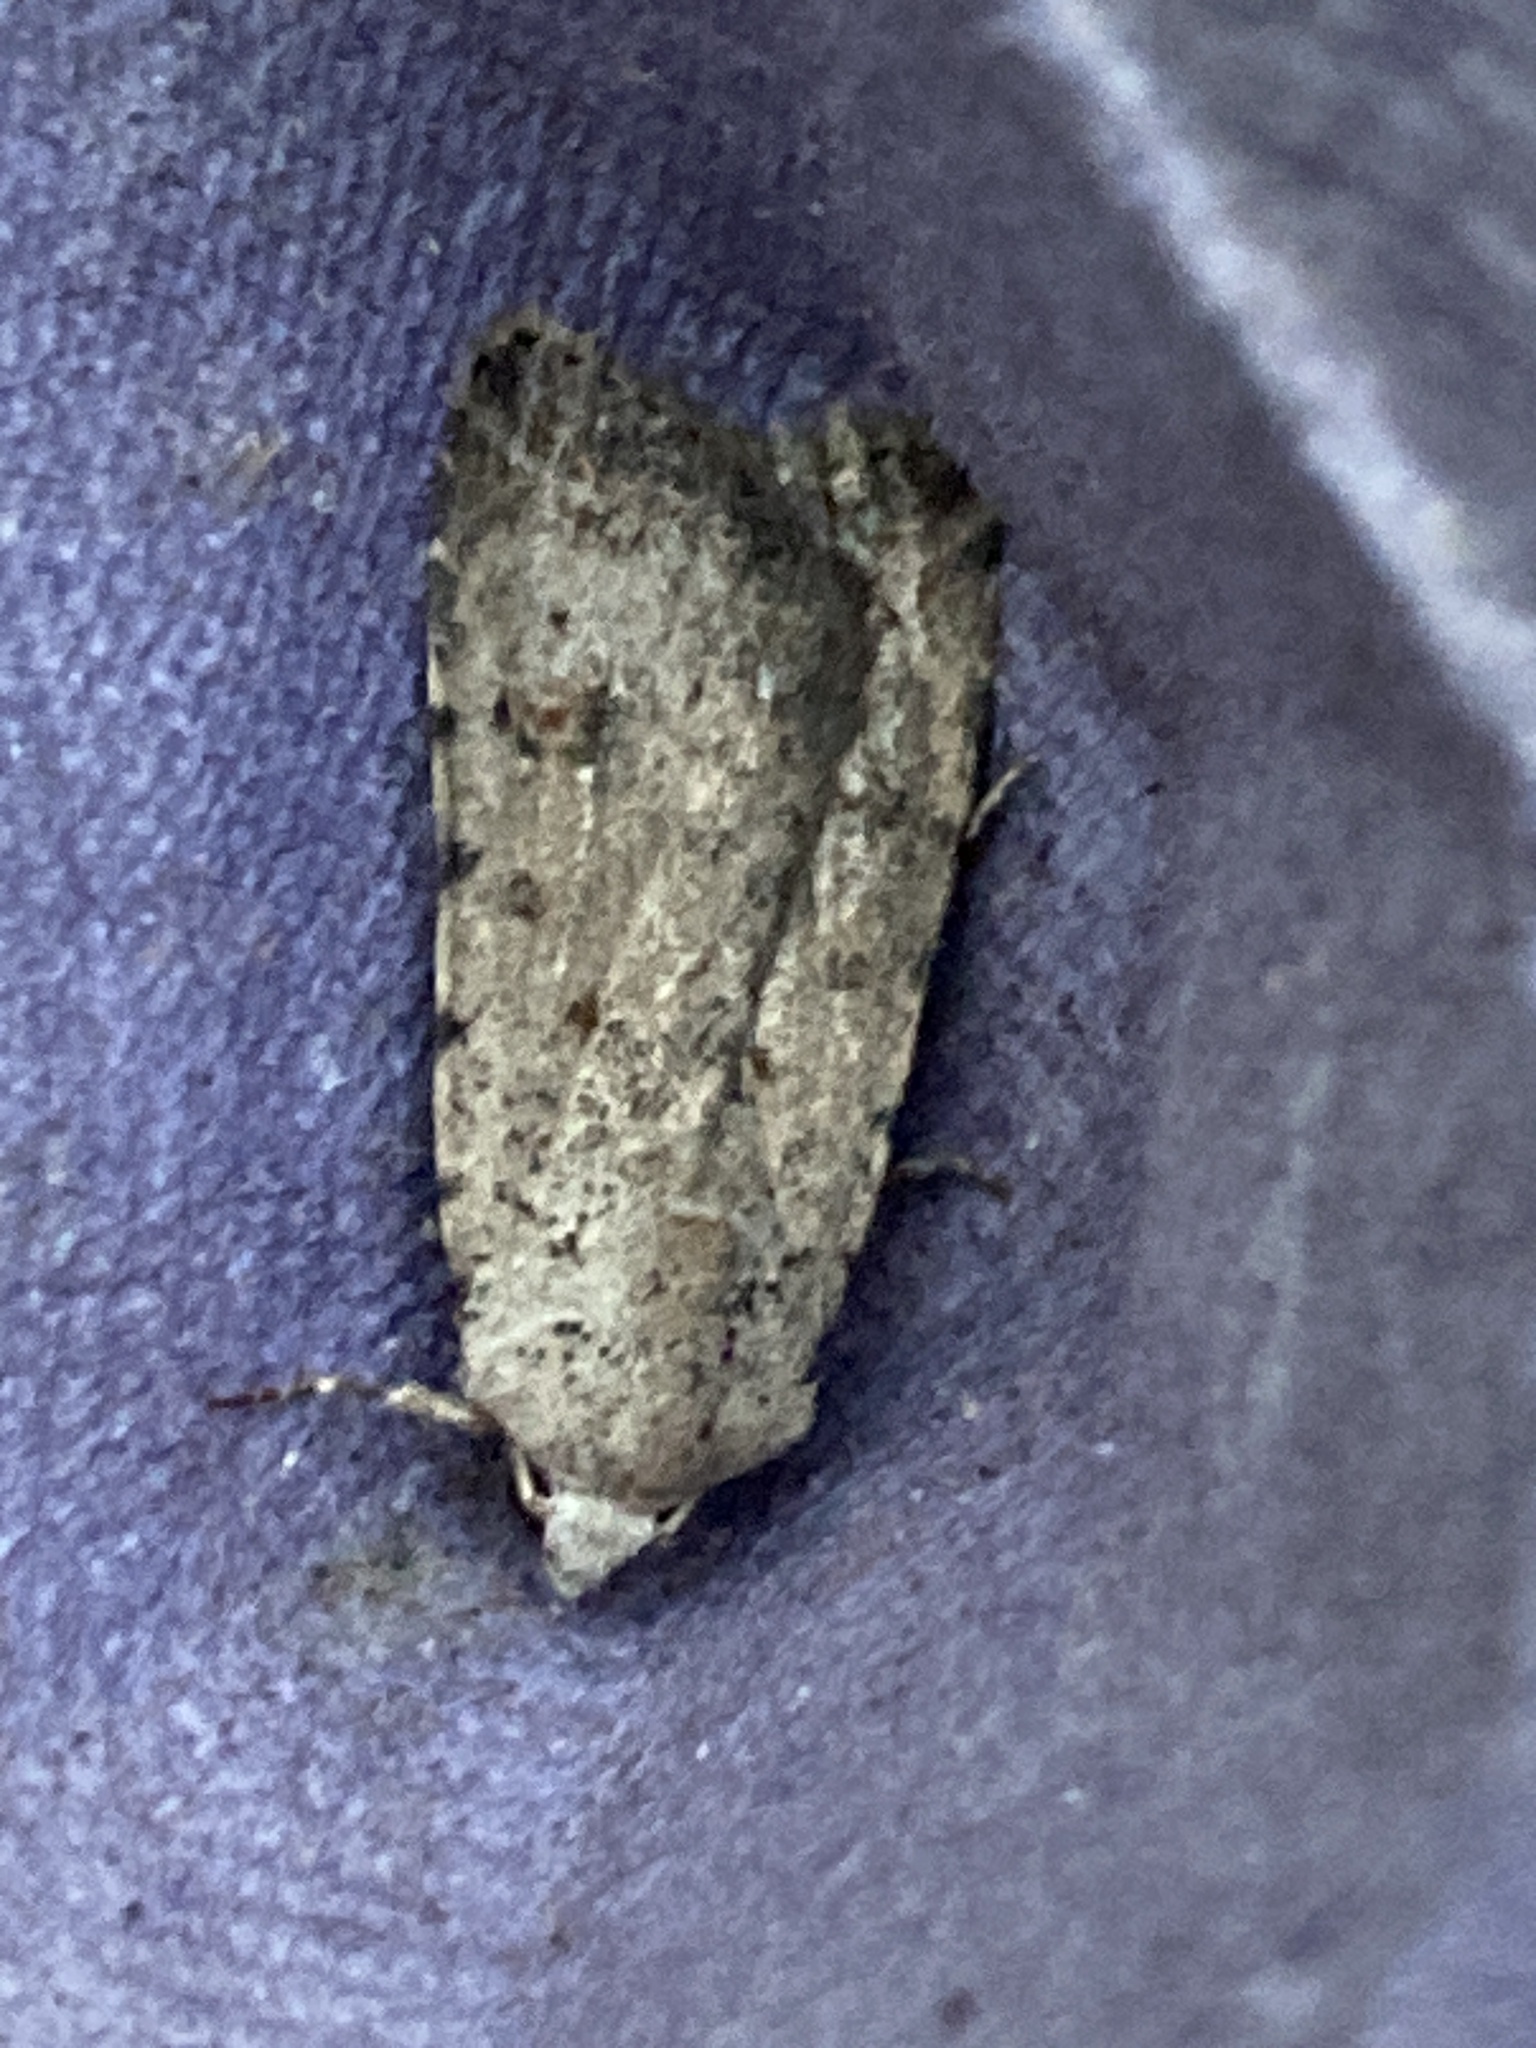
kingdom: Animalia
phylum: Arthropoda
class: Insecta
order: Lepidoptera
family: Noctuidae
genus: Caradrina
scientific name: Caradrina clavipalpis
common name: Pale mottled willow
